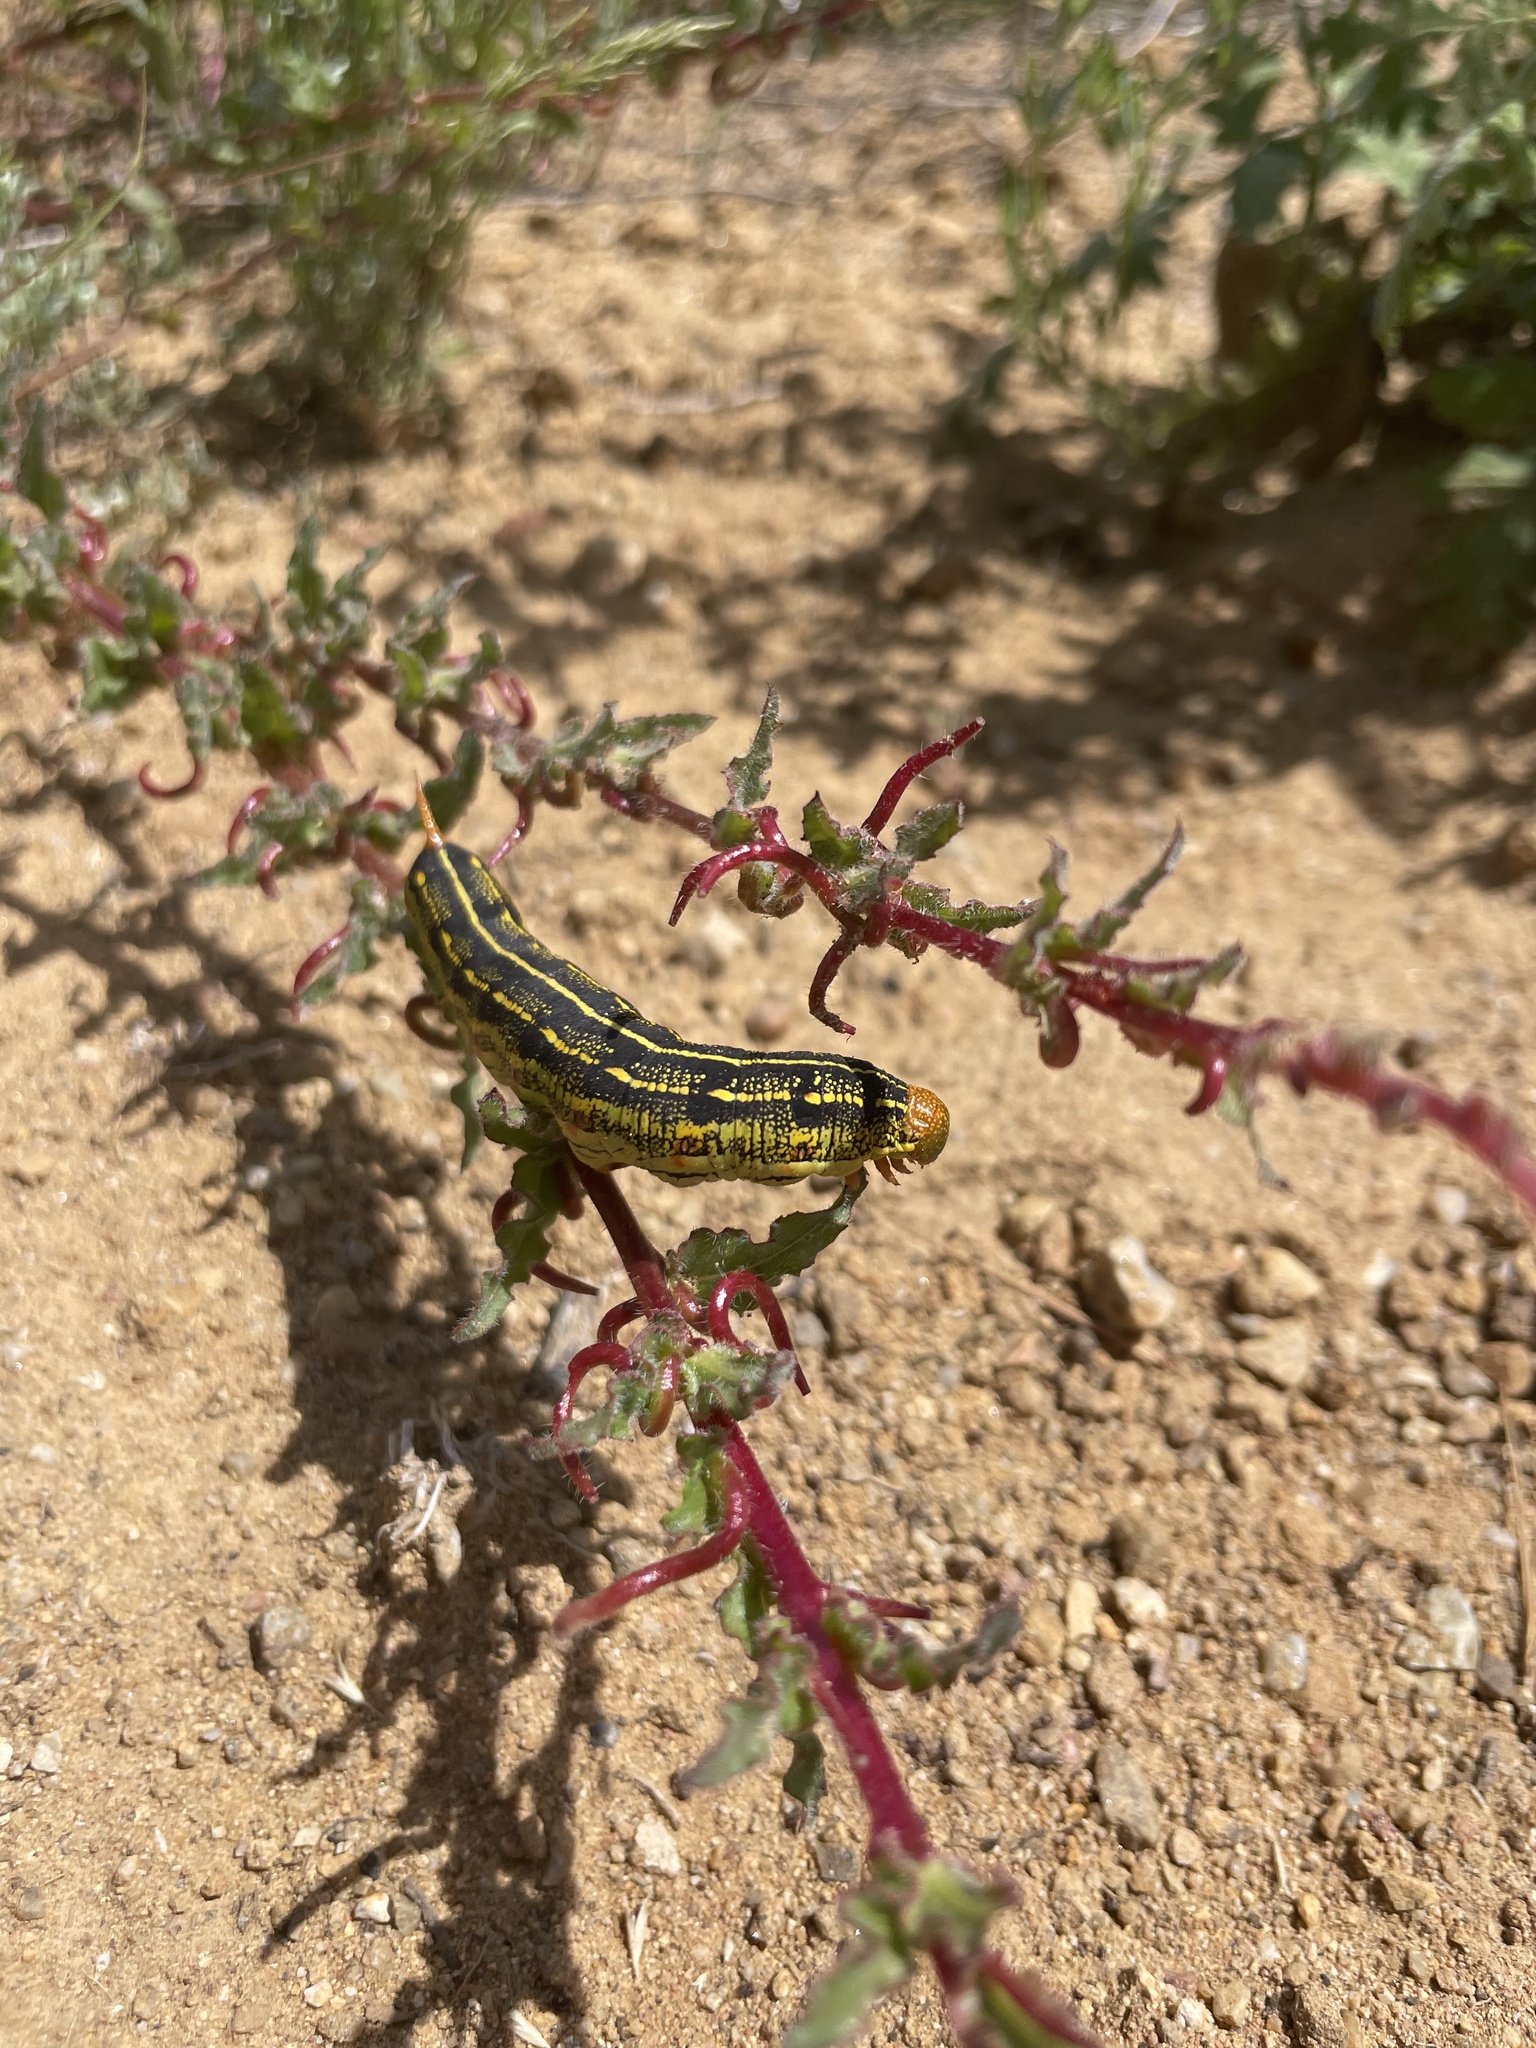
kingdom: Animalia
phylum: Arthropoda
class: Insecta
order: Lepidoptera
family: Sphingidae
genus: Hyles
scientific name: Hyles lineata
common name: White-lined sphinx
